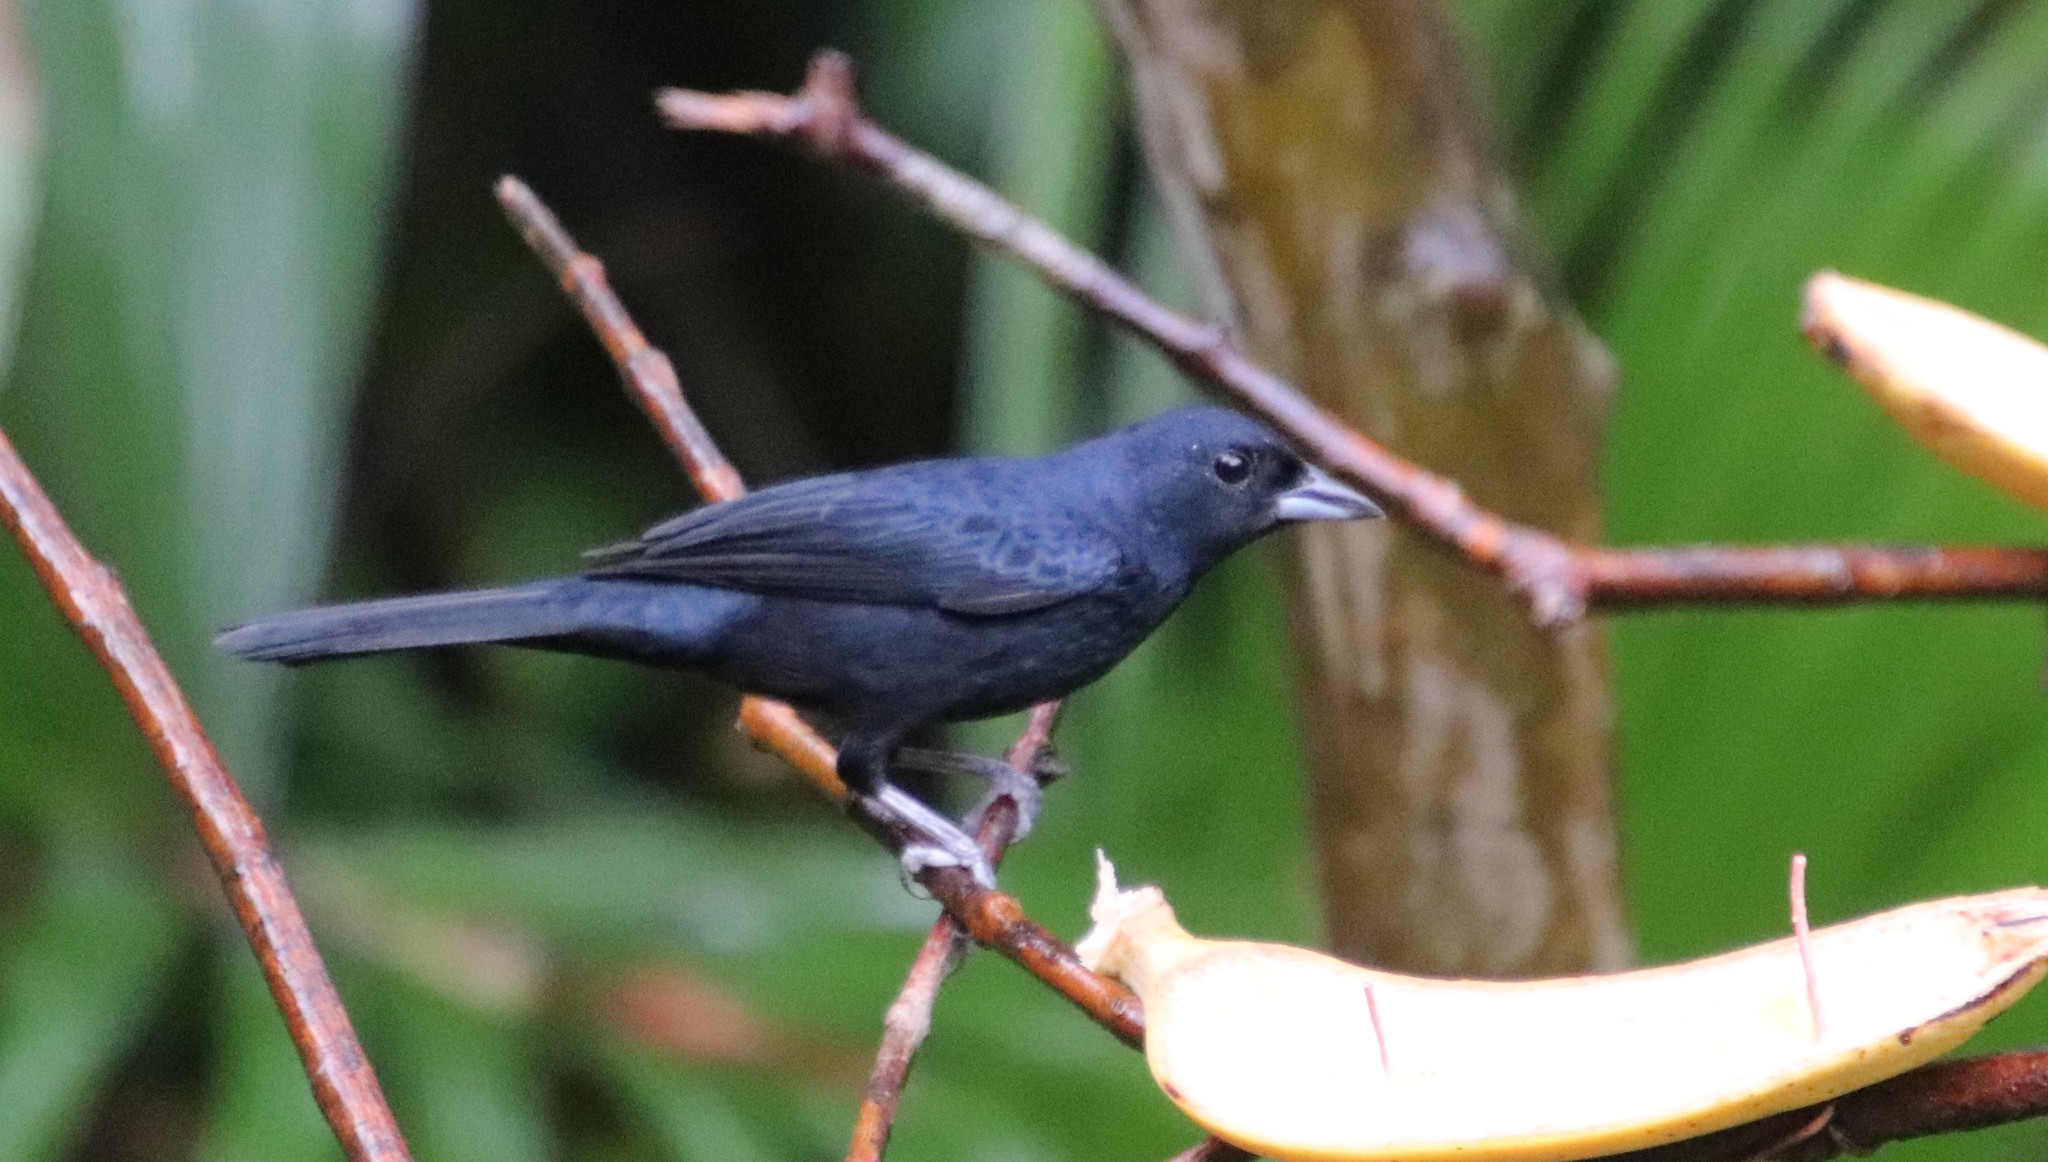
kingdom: Animalia
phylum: Chordata
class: Aves
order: Passeriformes
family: Thraupidae
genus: Tachyphonus
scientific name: Tachyphonus coronatus
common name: Ruby-crowned tanager
